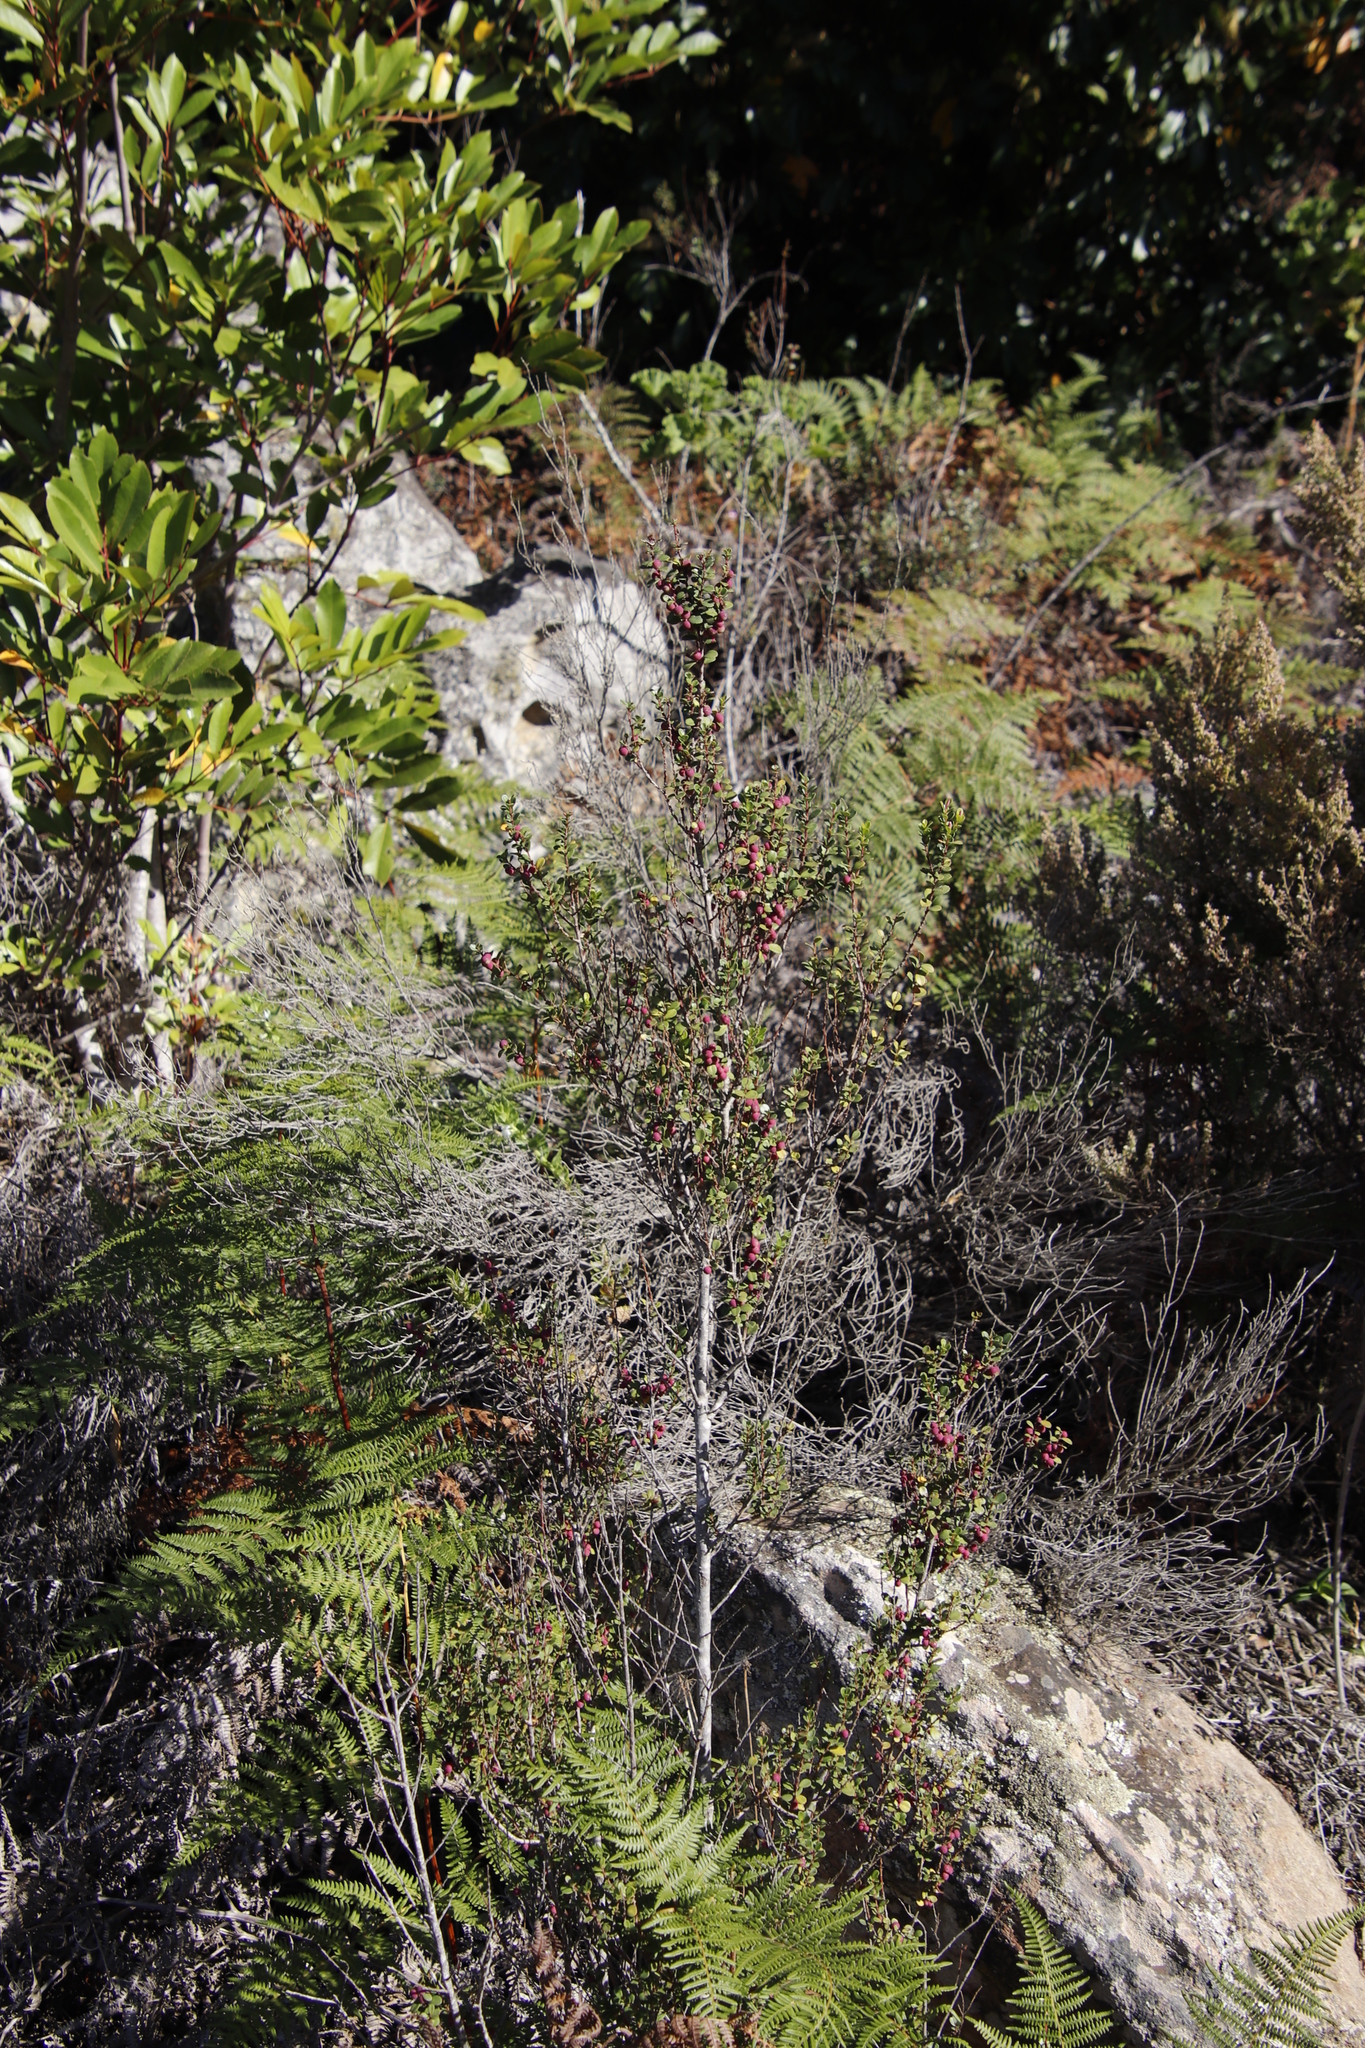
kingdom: Plantae
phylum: Tracheophyta
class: Magnoliopsida
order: Ericales
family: Primulaceae
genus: Myrsine
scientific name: Myrsine africana
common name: African-boxwood
